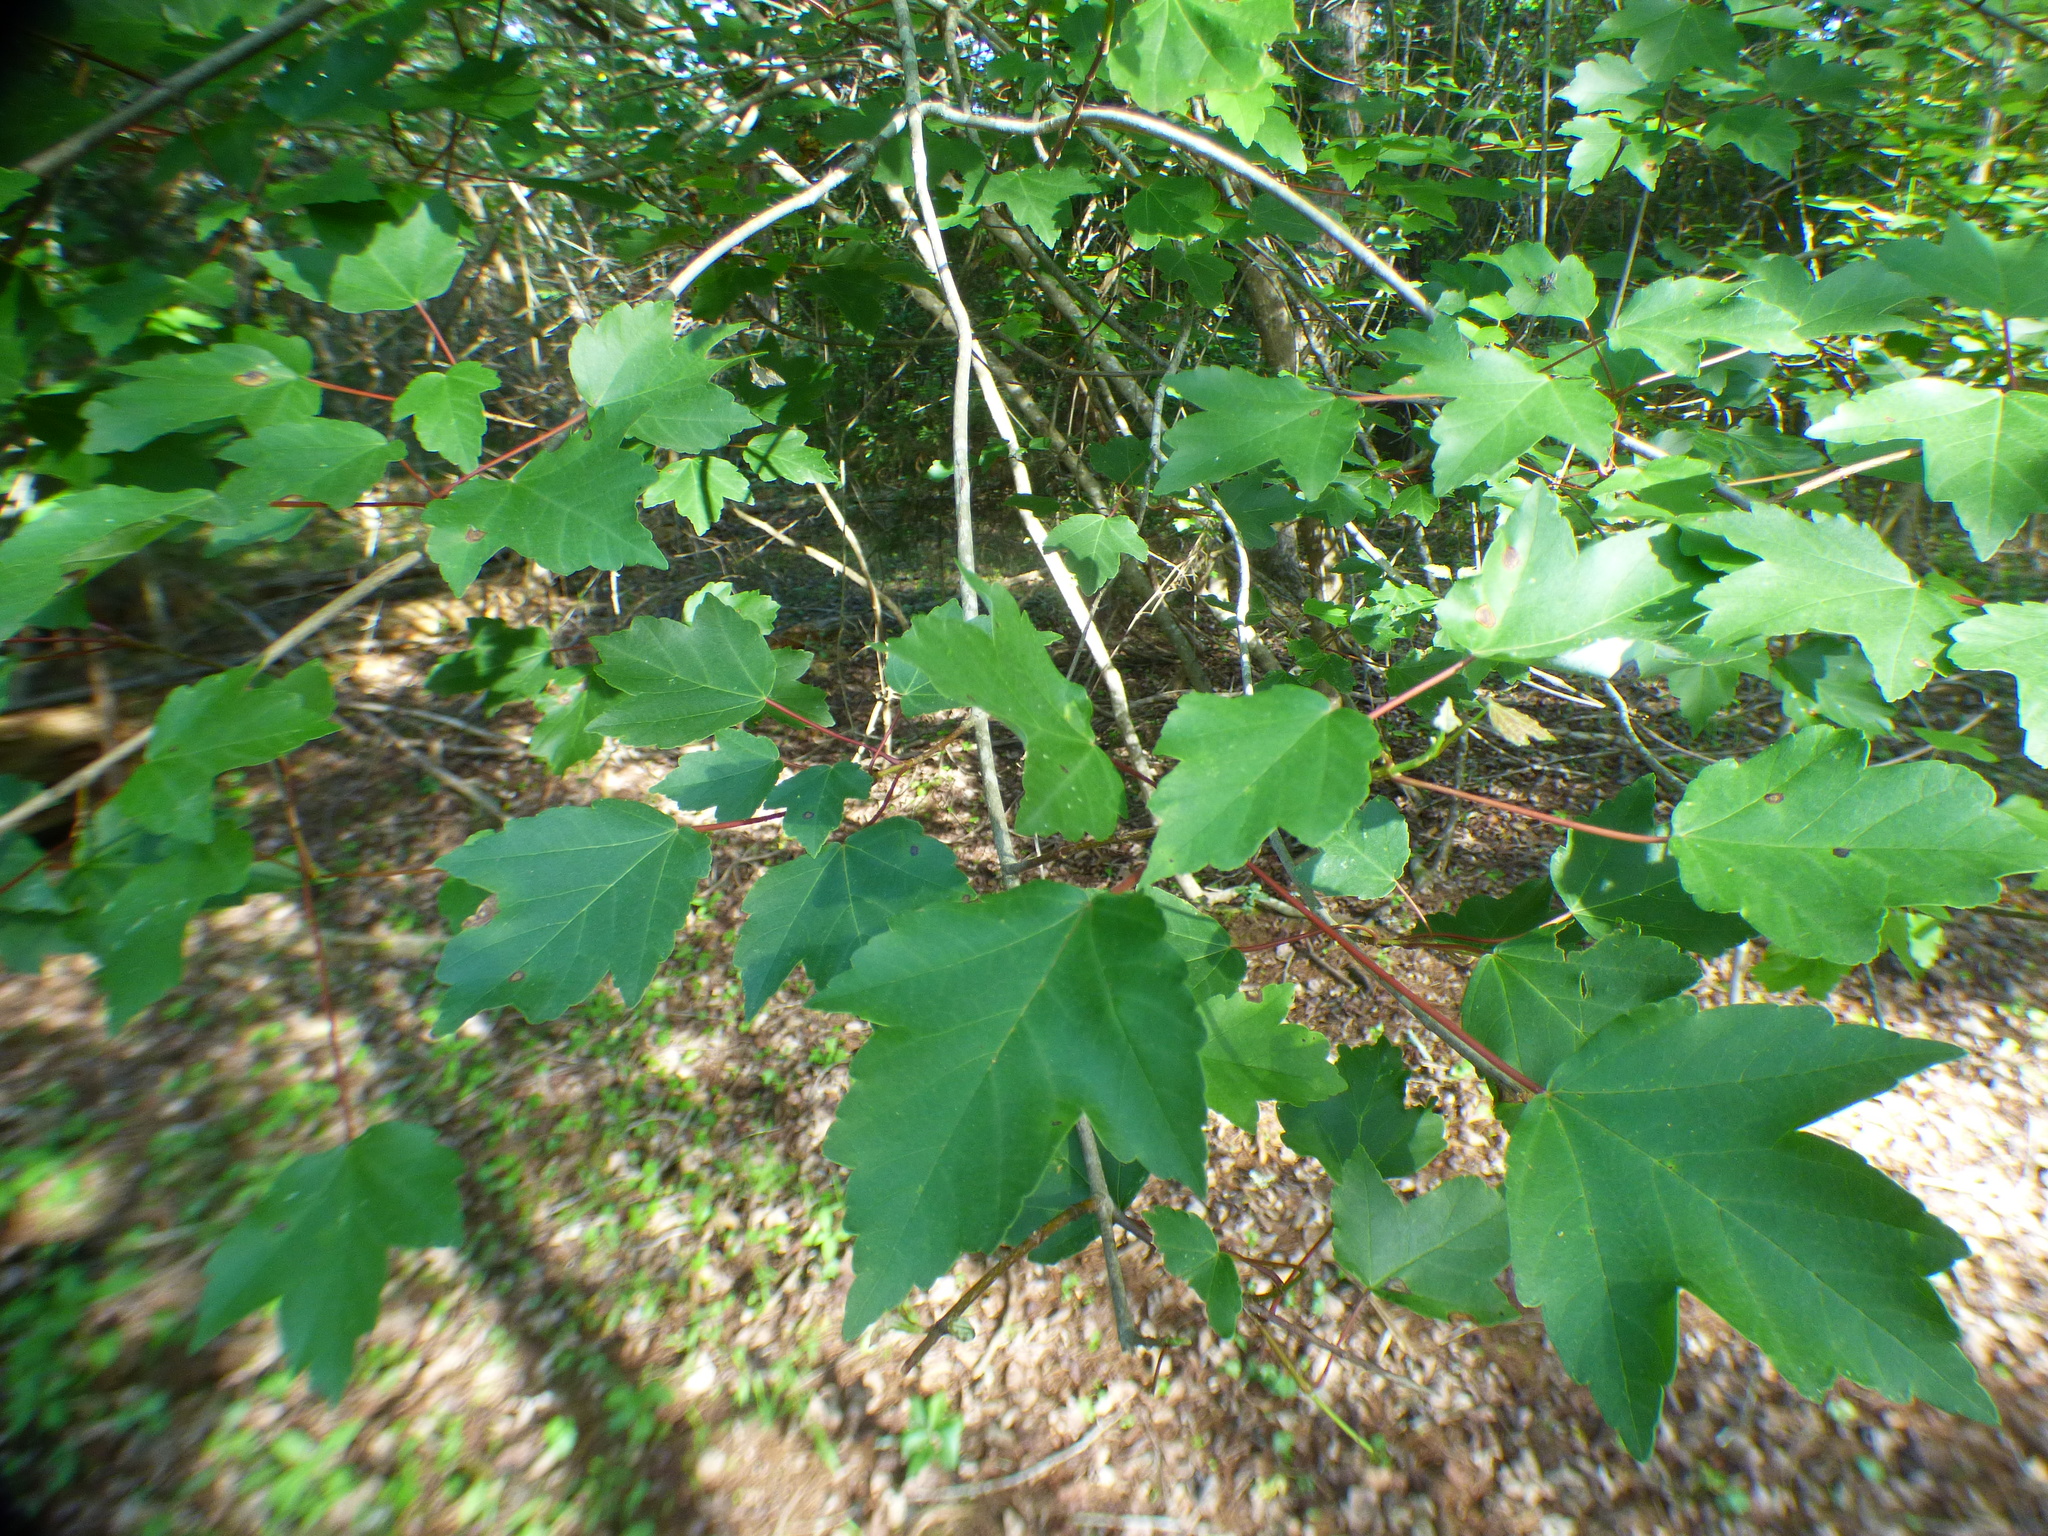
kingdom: Plantae
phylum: Tracheophyta
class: Magnoliopsida
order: Sapindales
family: Sapindaceae
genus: Acer
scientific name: Acer rubrum
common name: Red maple
